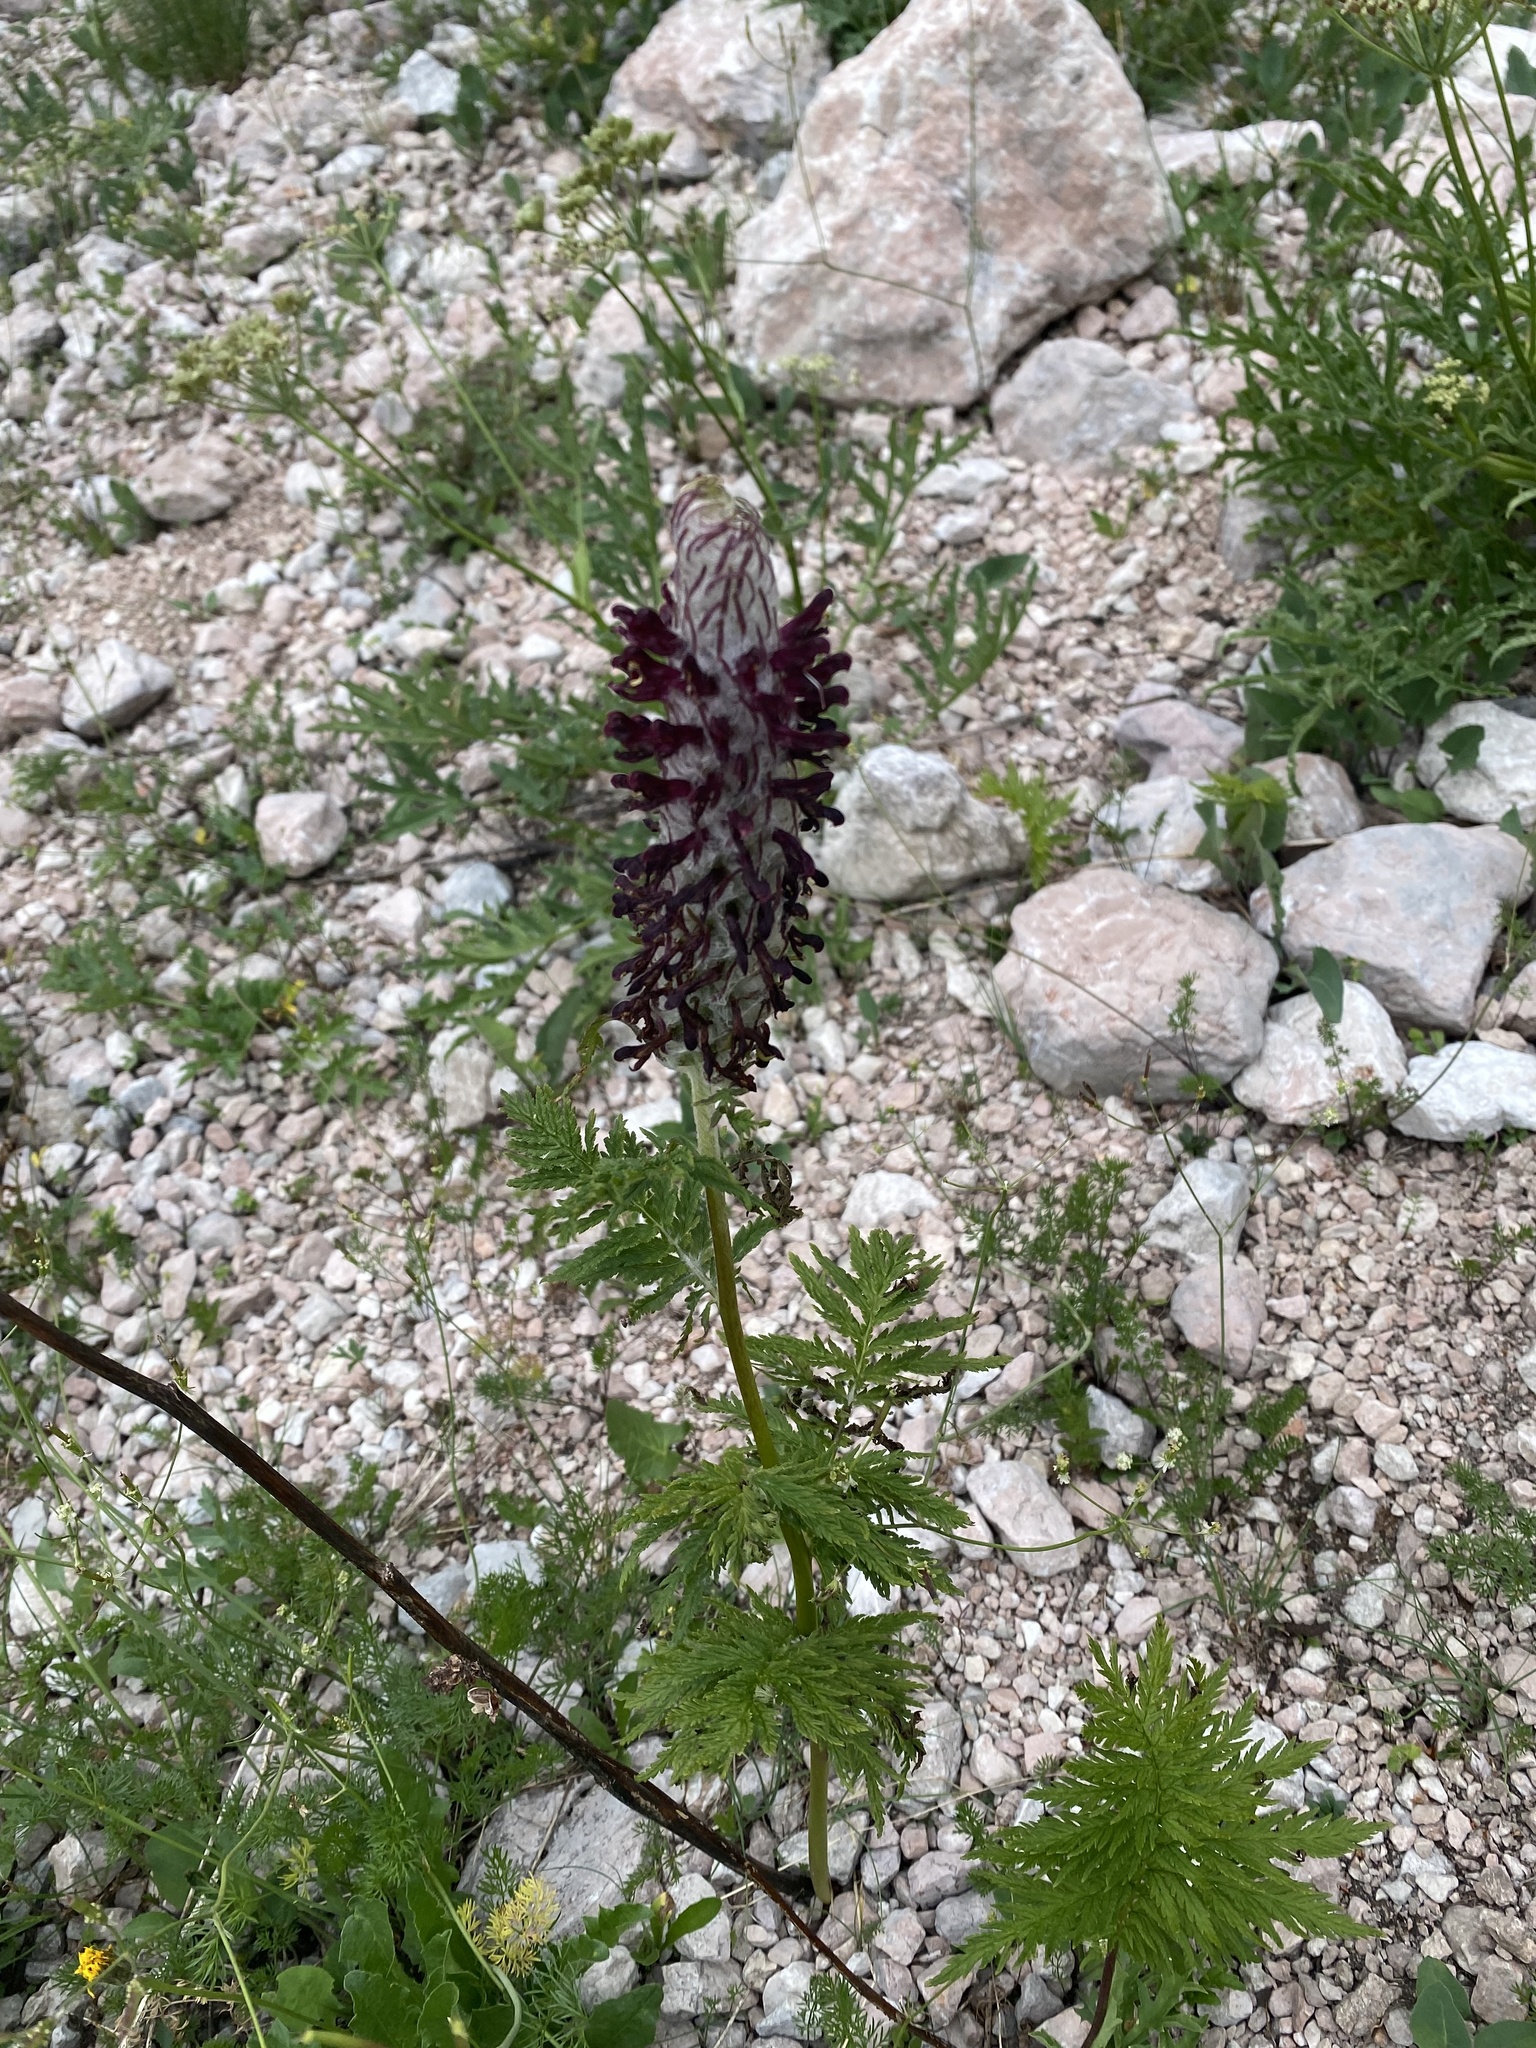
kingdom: Plantae
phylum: Tracheophyta
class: Magnoliopsida
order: Lamiales
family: Orobanchaceae
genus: Pedicularis
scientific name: Pedicularis atropurpurea
